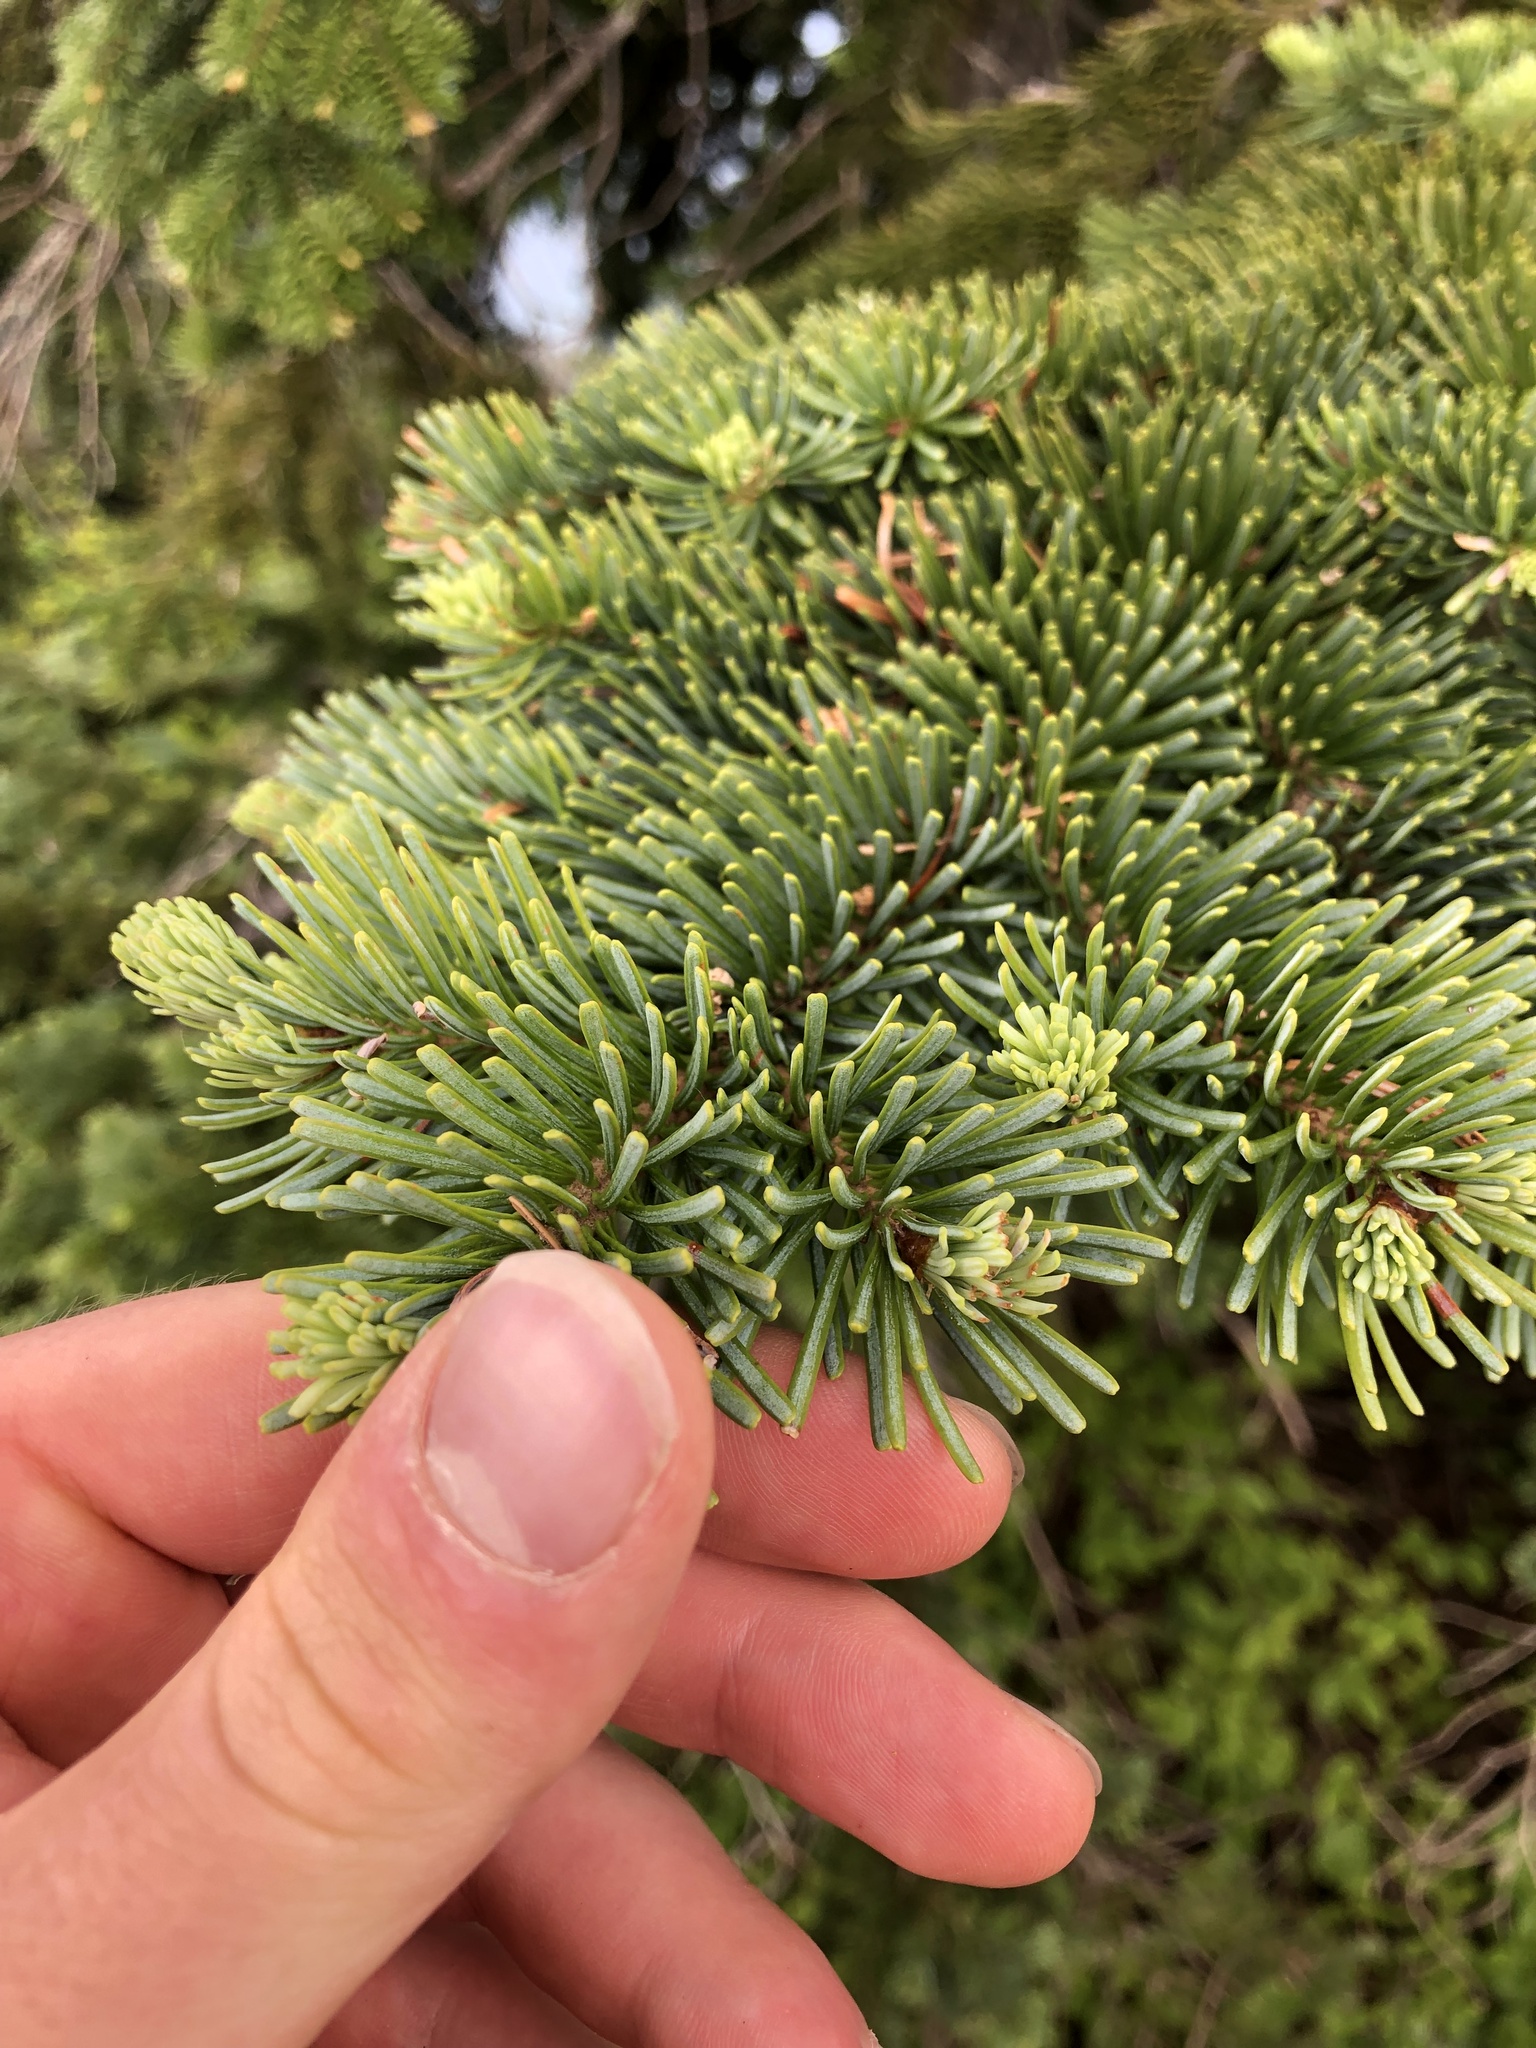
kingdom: Plantae
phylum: Tracheophyta
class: Pinopsida
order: Pinales
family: Pinaceae
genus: Abies
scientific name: Abies lasiocarpa
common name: Subalpine fir
